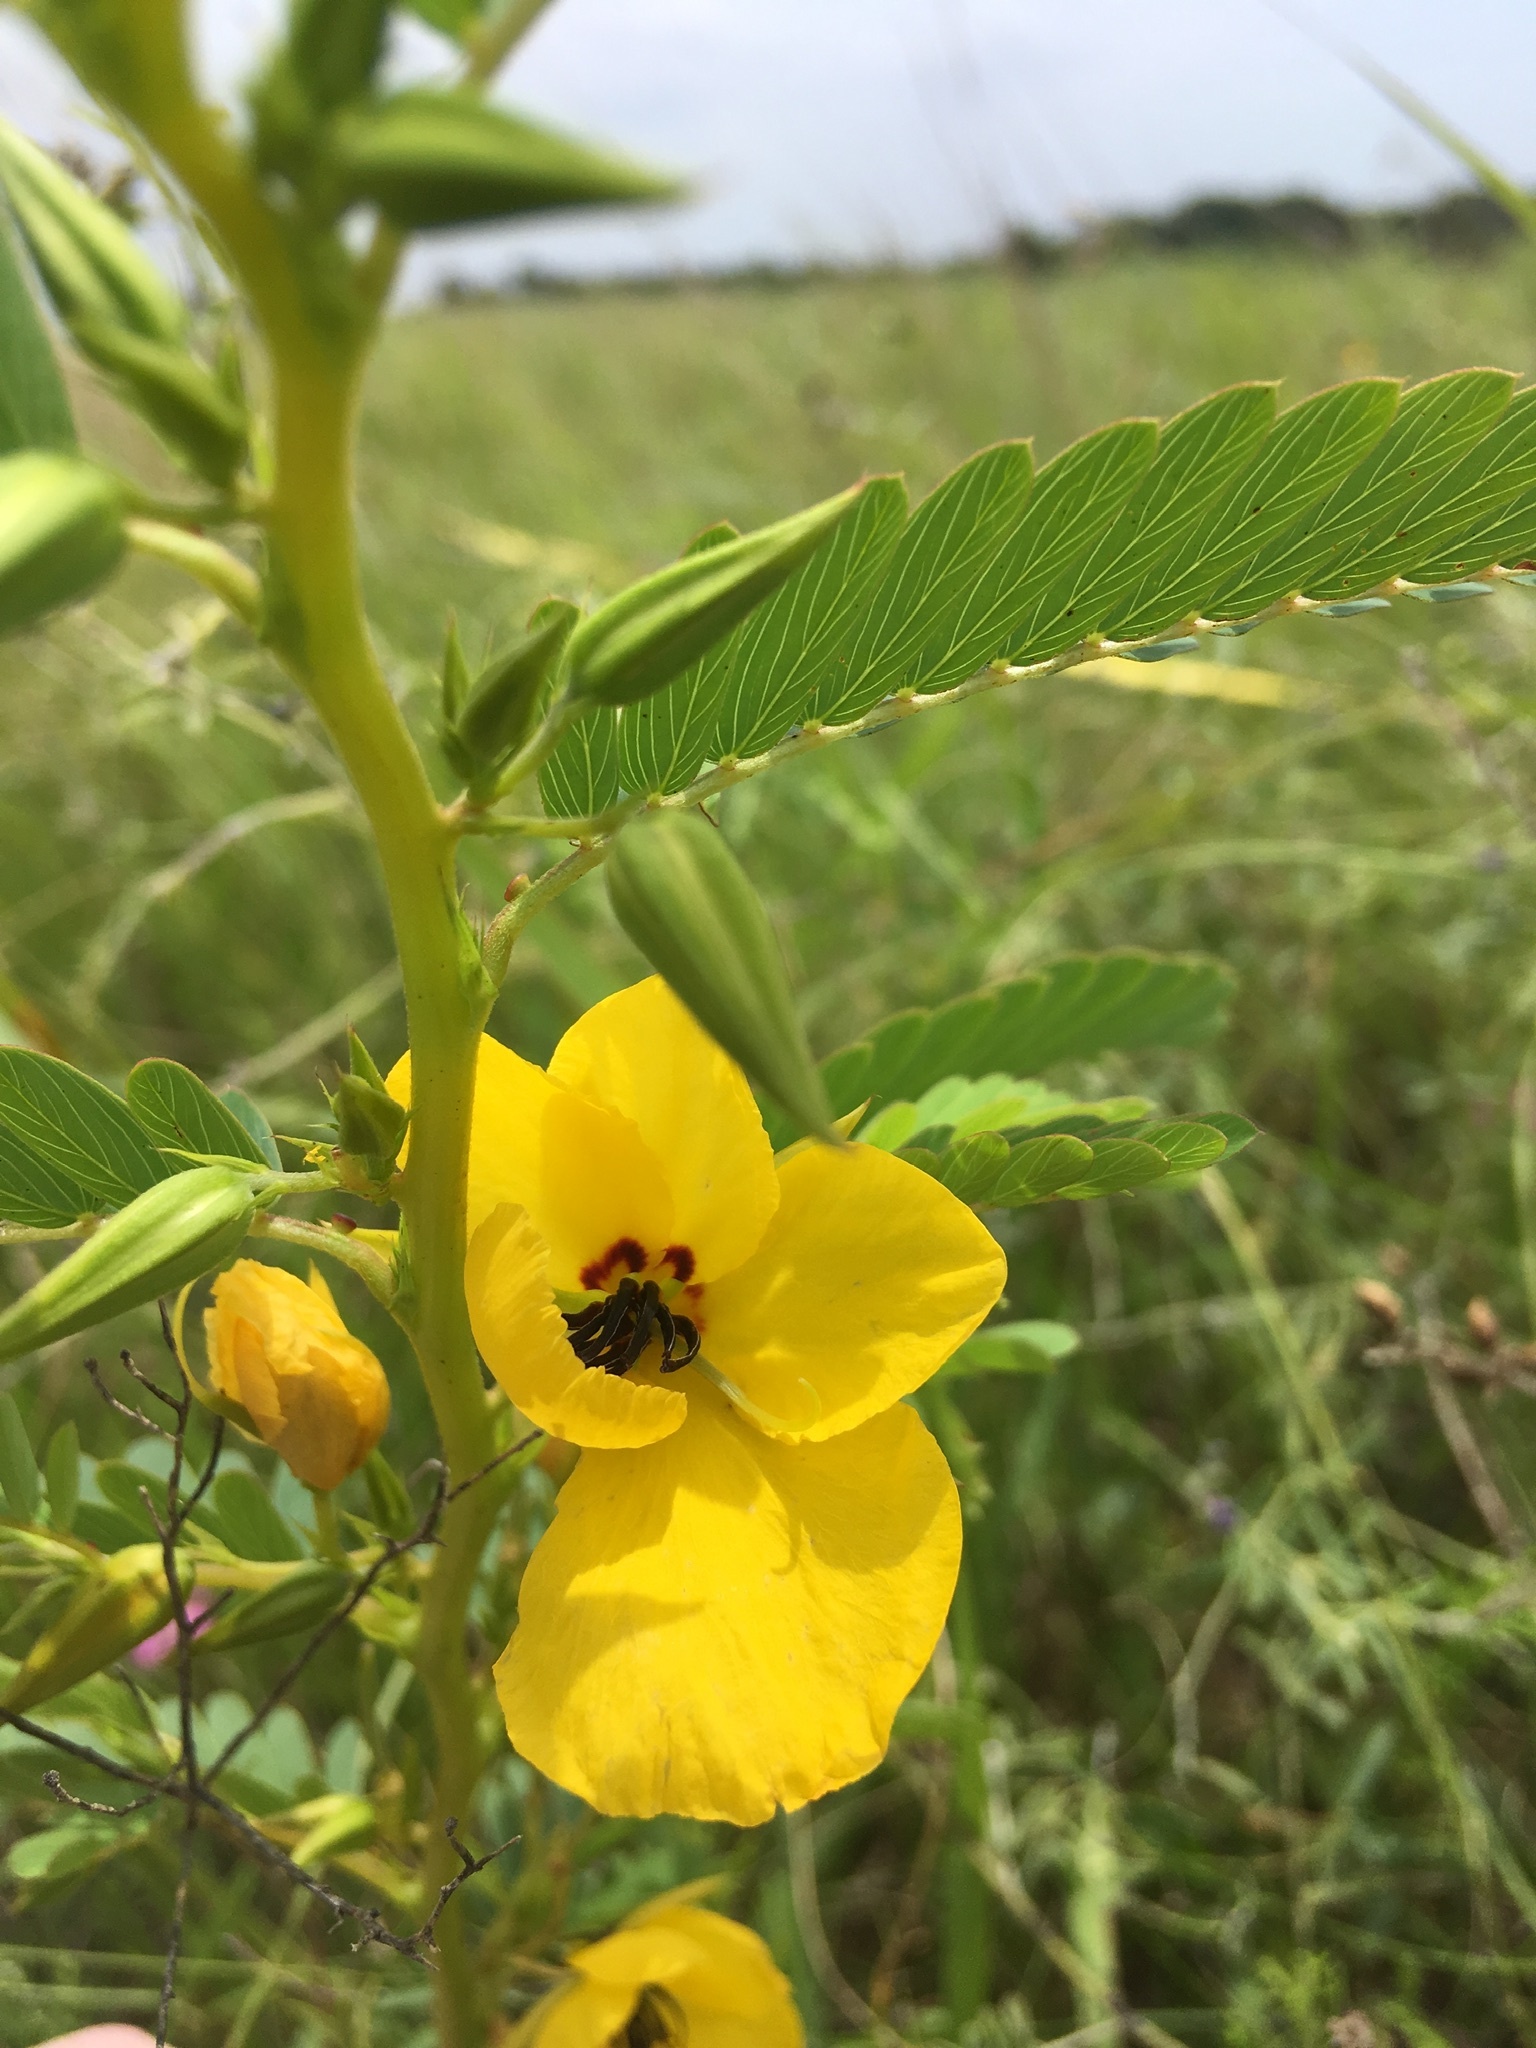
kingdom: Plantae
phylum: Tracheophyta
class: Magnoliopsida
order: Fabales
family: Fabaceae
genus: Chamaecrista
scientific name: Chamaecrista fasciculata
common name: Golden cassia
